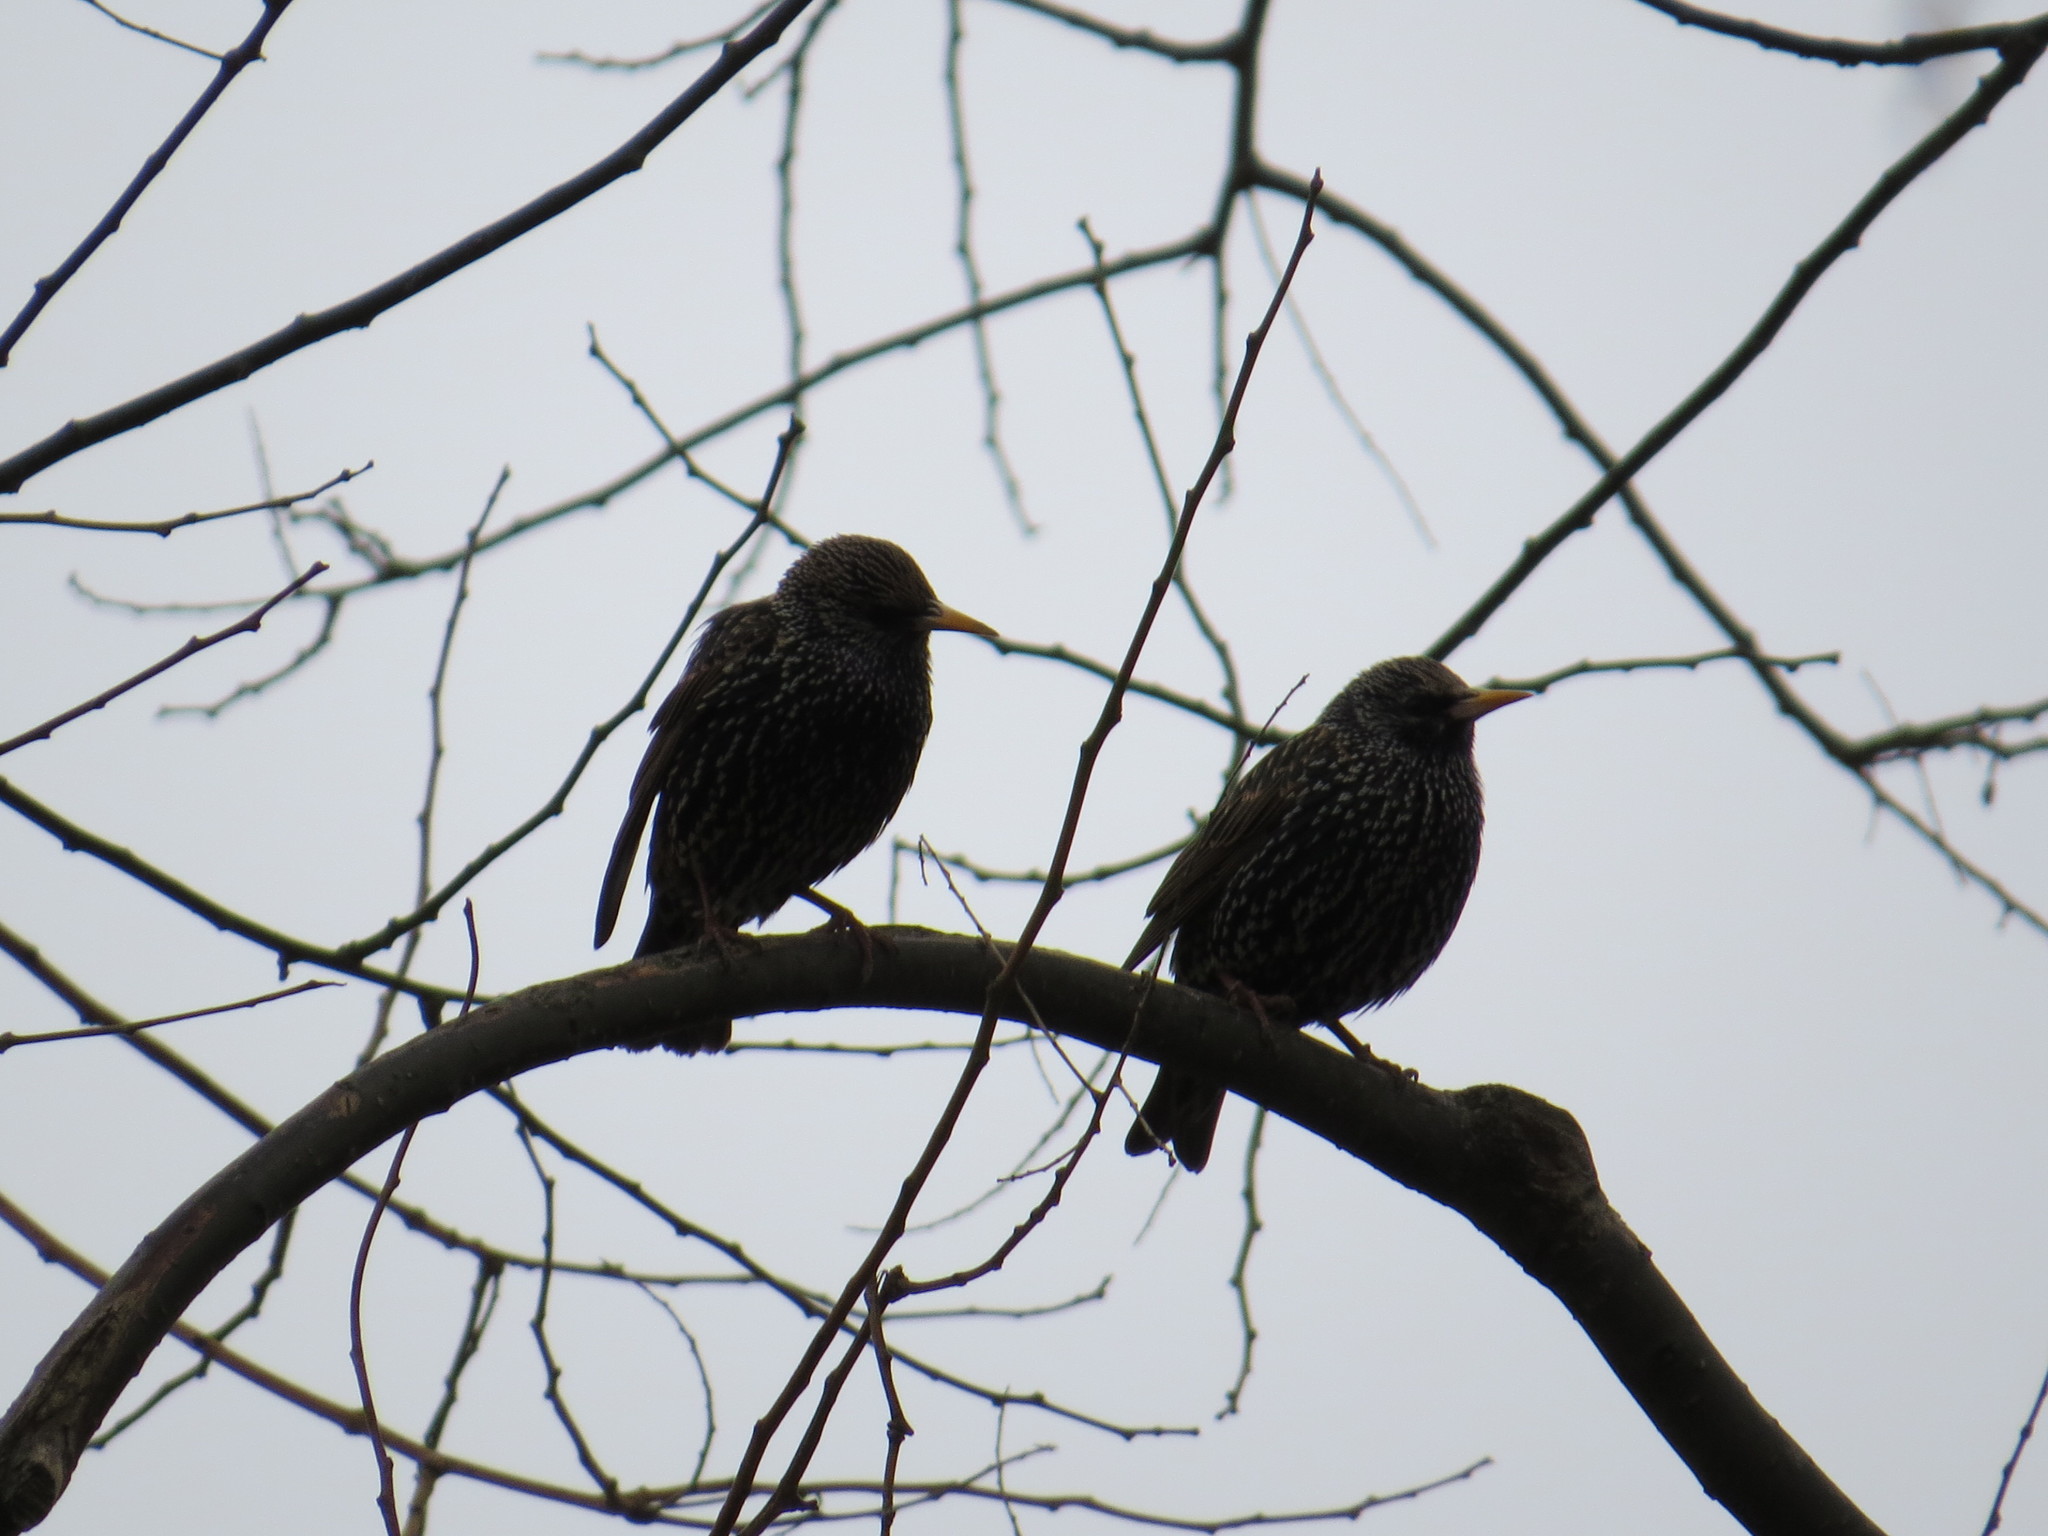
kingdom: Animalia
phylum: Chordata
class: Aves
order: Passeriformes
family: Sturnidae
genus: Sturnus
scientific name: Sturnus vulgaris
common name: Common starling
